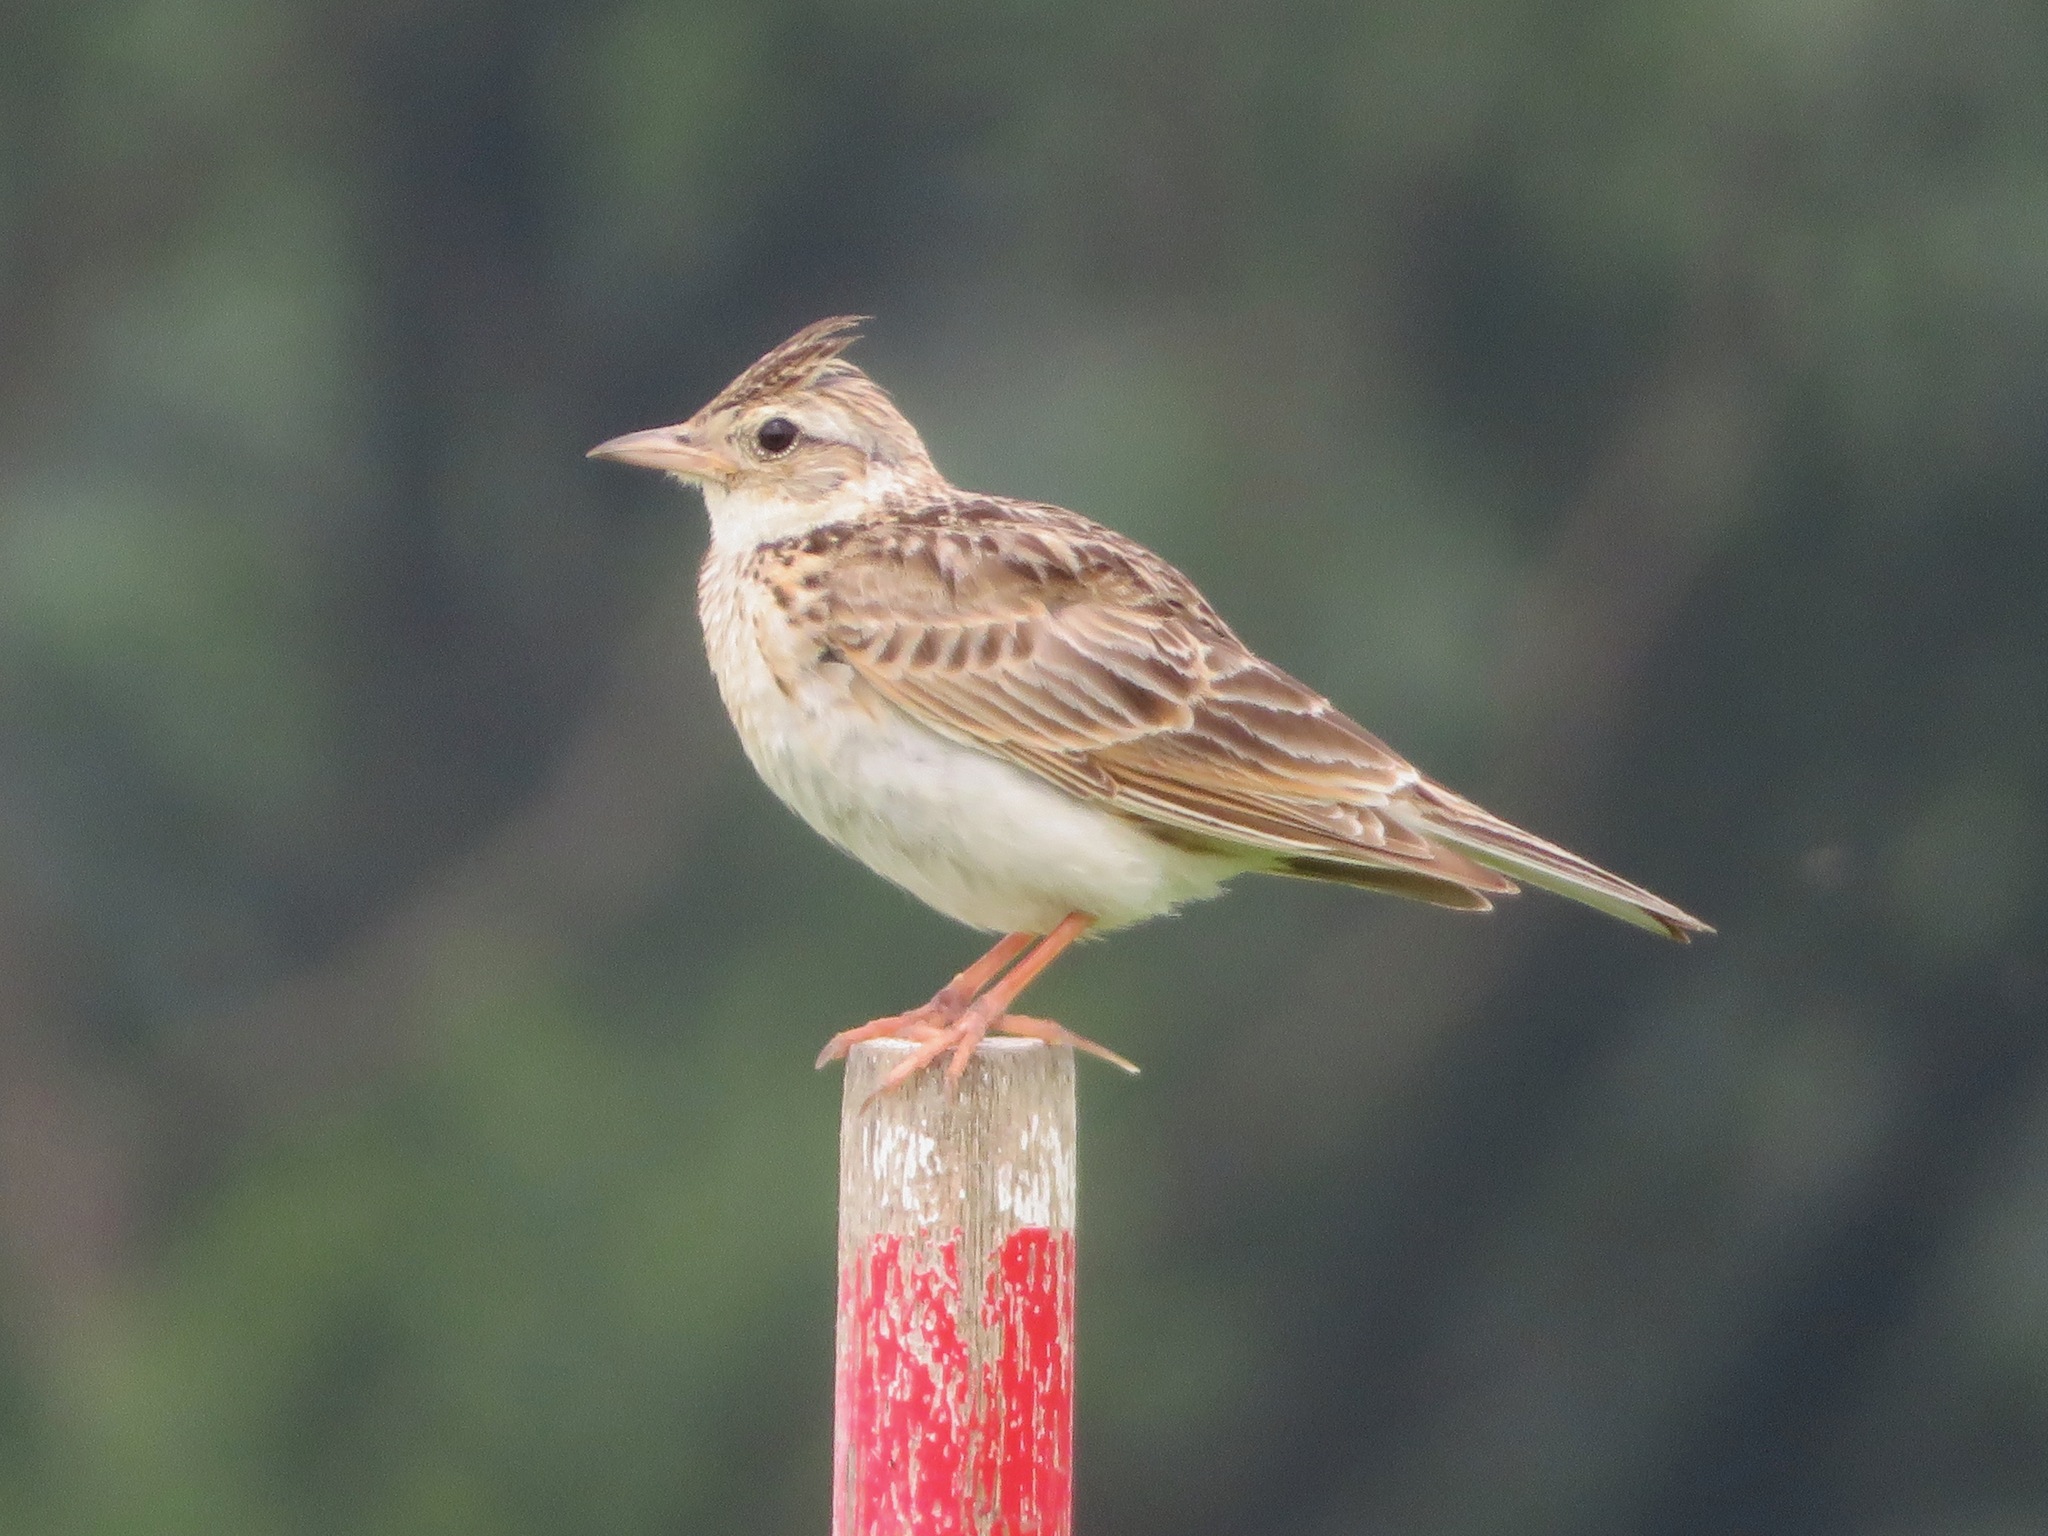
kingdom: Animalia
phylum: Chordata
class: Aves
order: Passeriformes
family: Alaudidae
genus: Alauda
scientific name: Alauda arvensis
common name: Eurasian skylark
